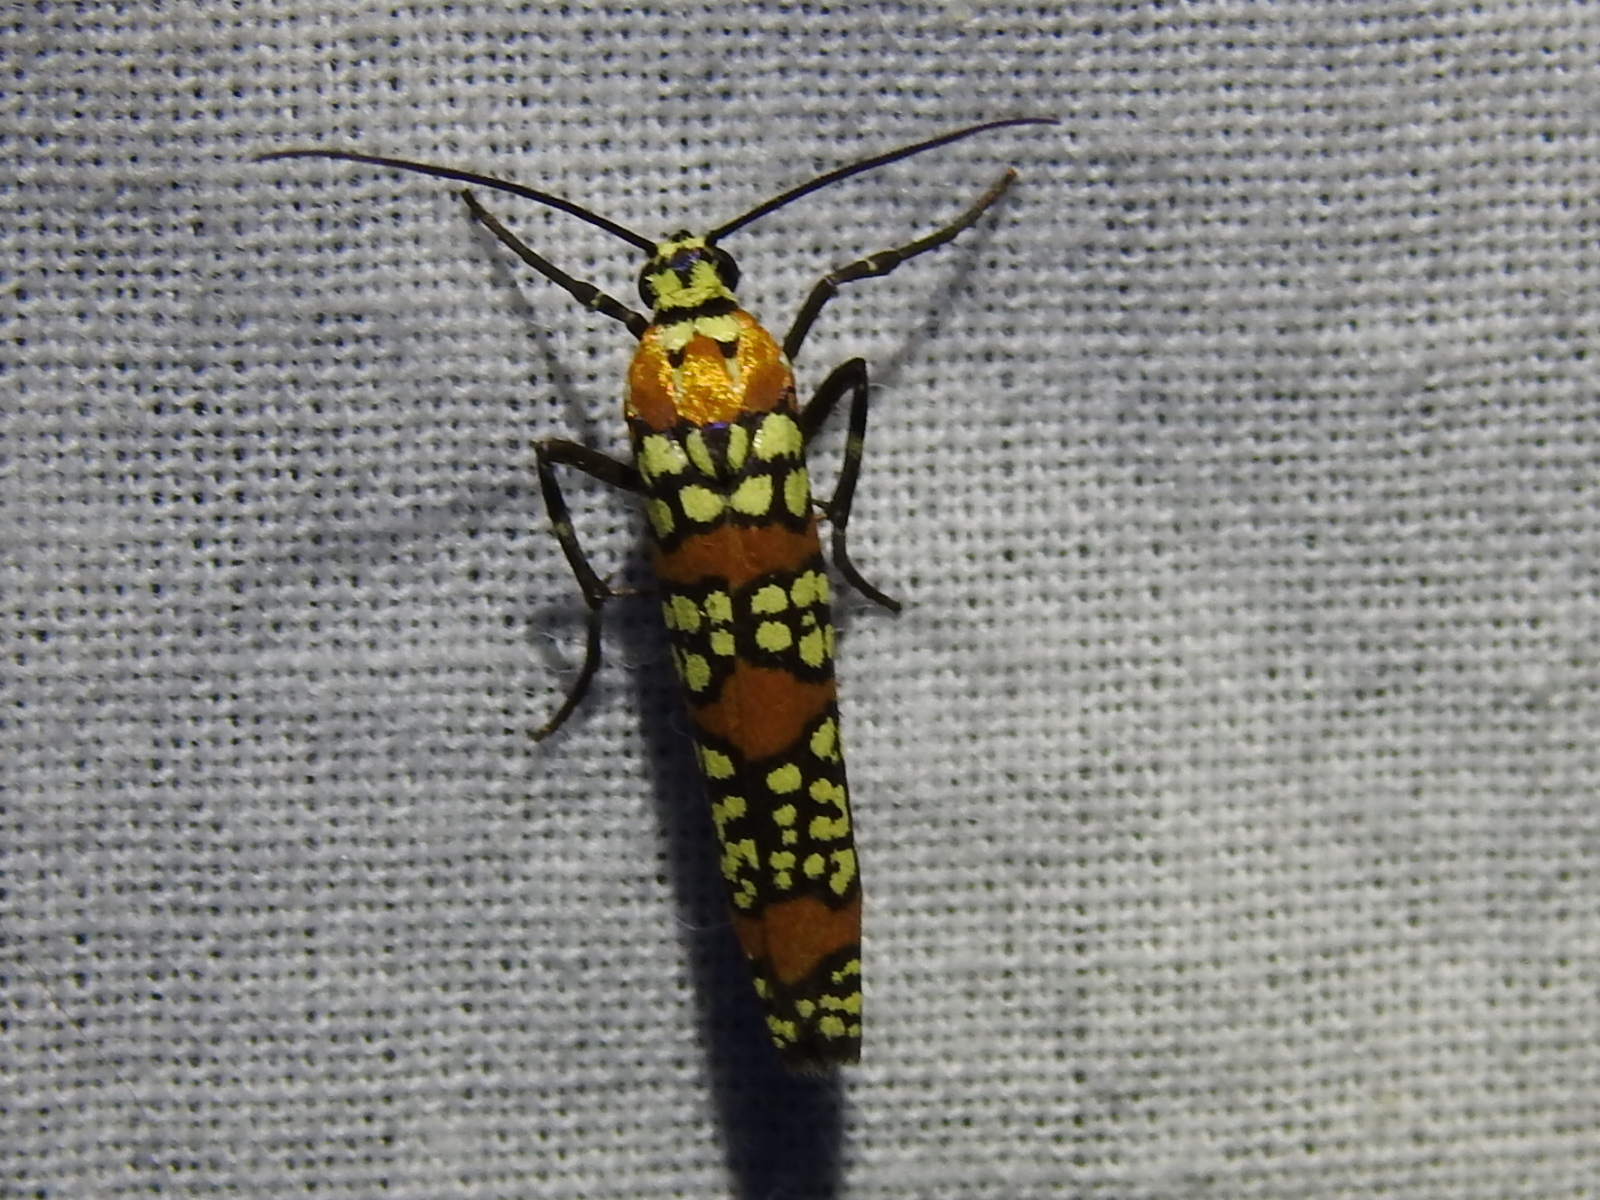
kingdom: Animalia
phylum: Arthropoda
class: Insecta
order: Lepidoptera
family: Attevidae
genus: Atteva
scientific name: Atteva punctella
